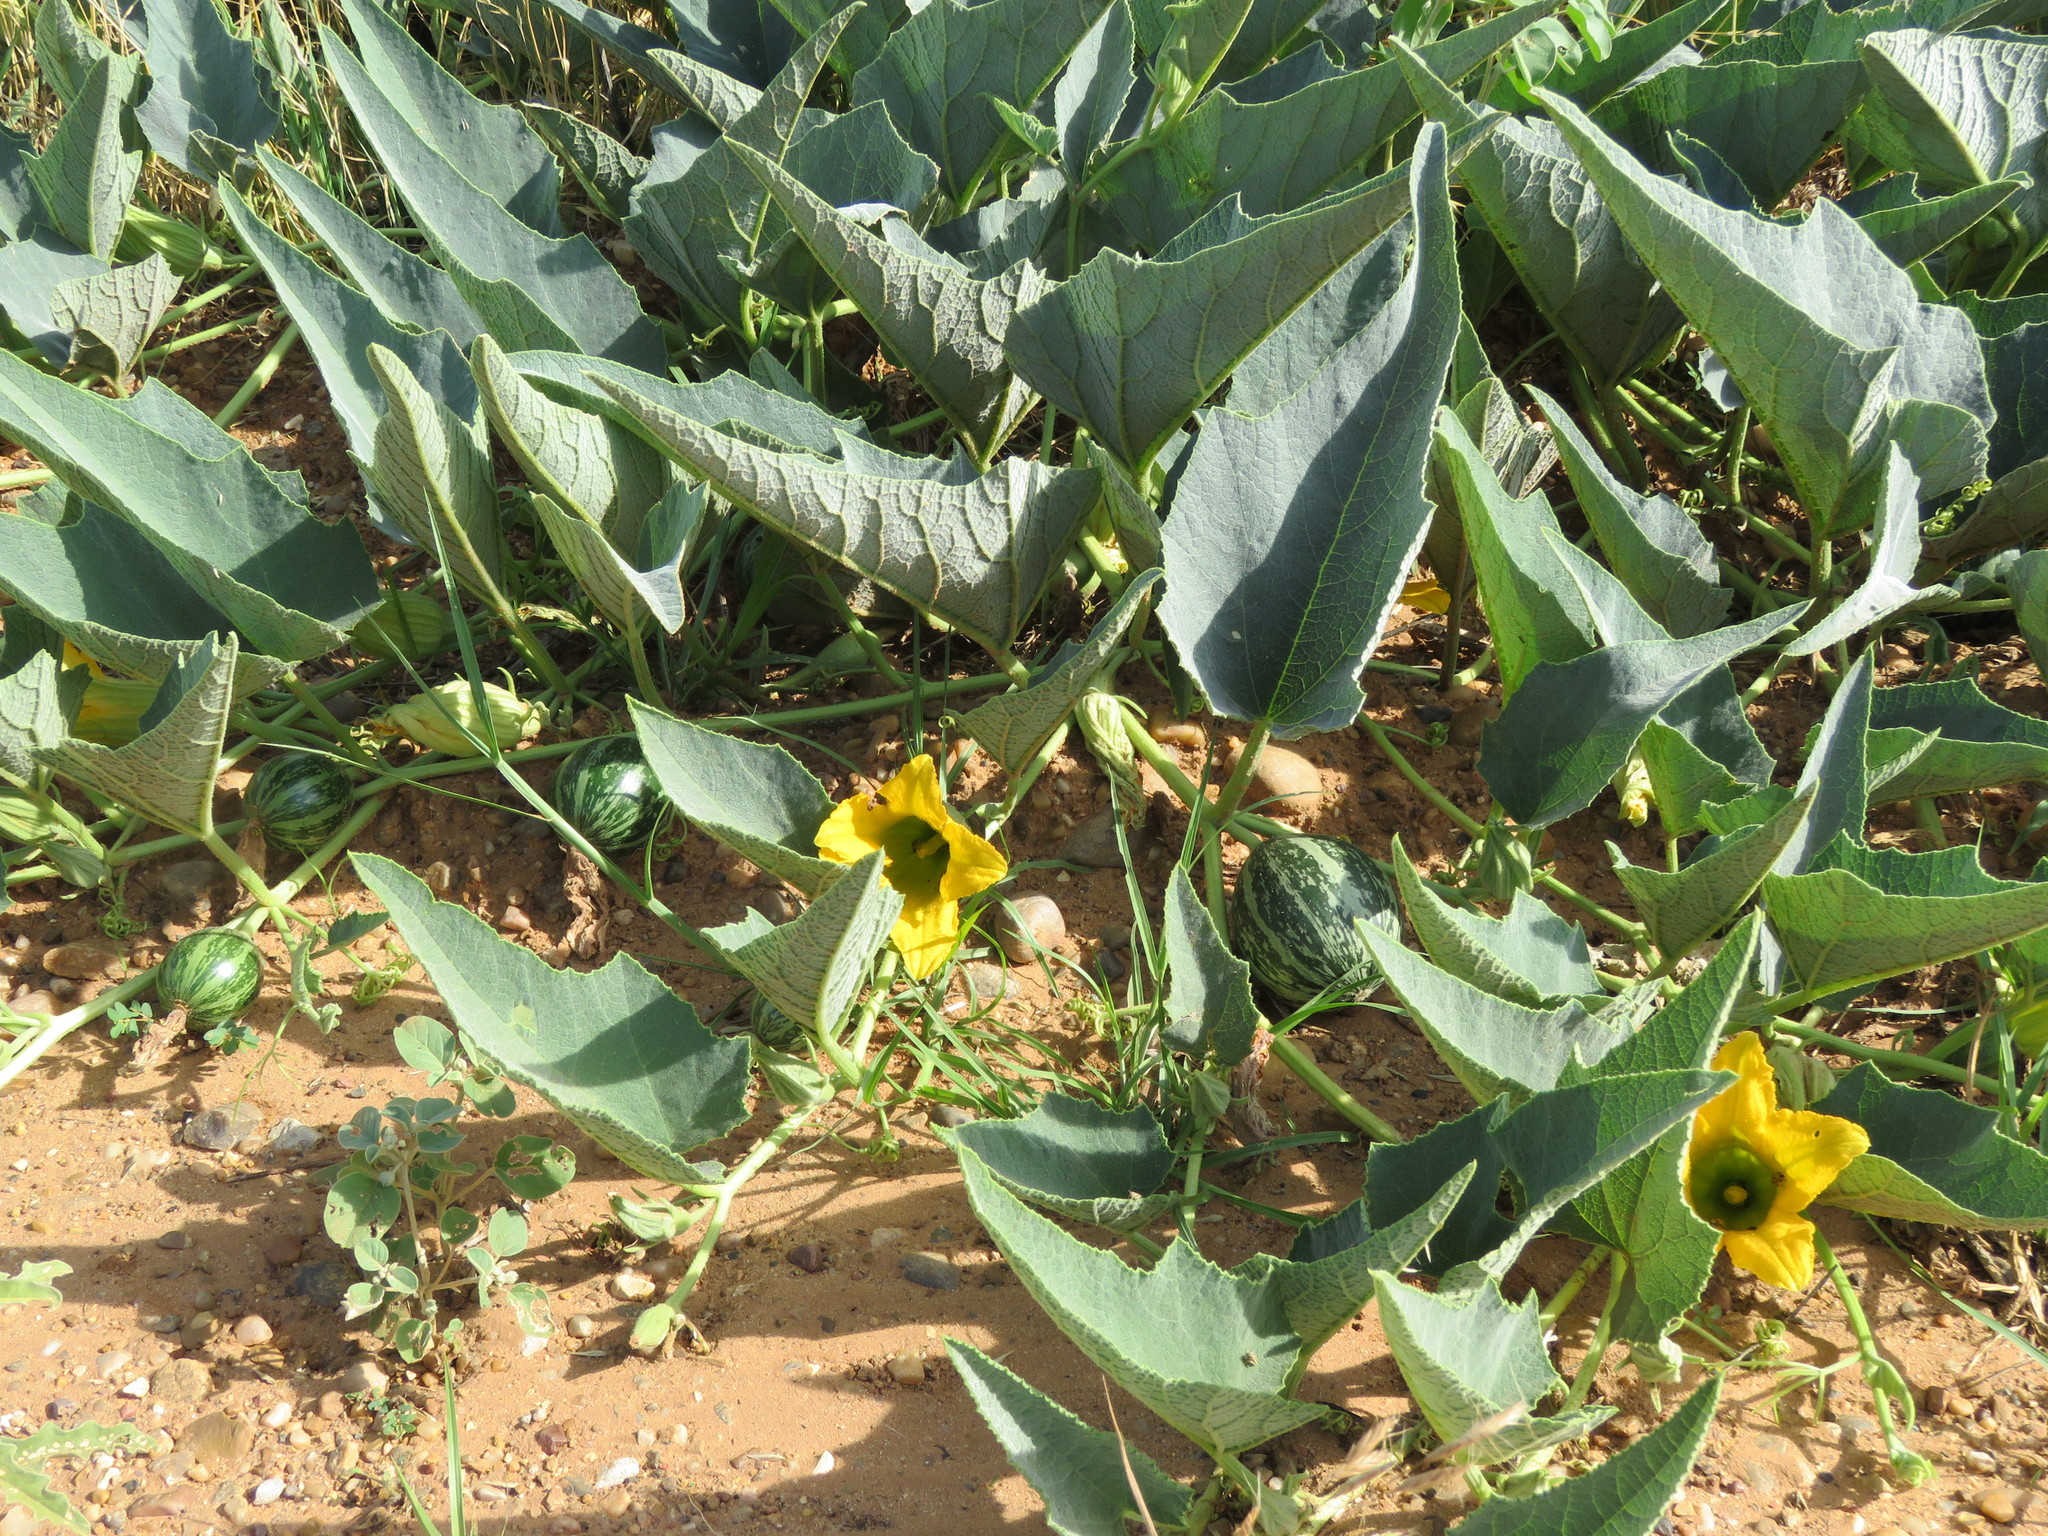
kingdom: Plantae
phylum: Tracheophyta
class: Magnoliopsida
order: Cucurbitales
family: Cucurbitaceae
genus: Cucurbita
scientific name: Cucurbita foetidissima
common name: Buffalo gourd
